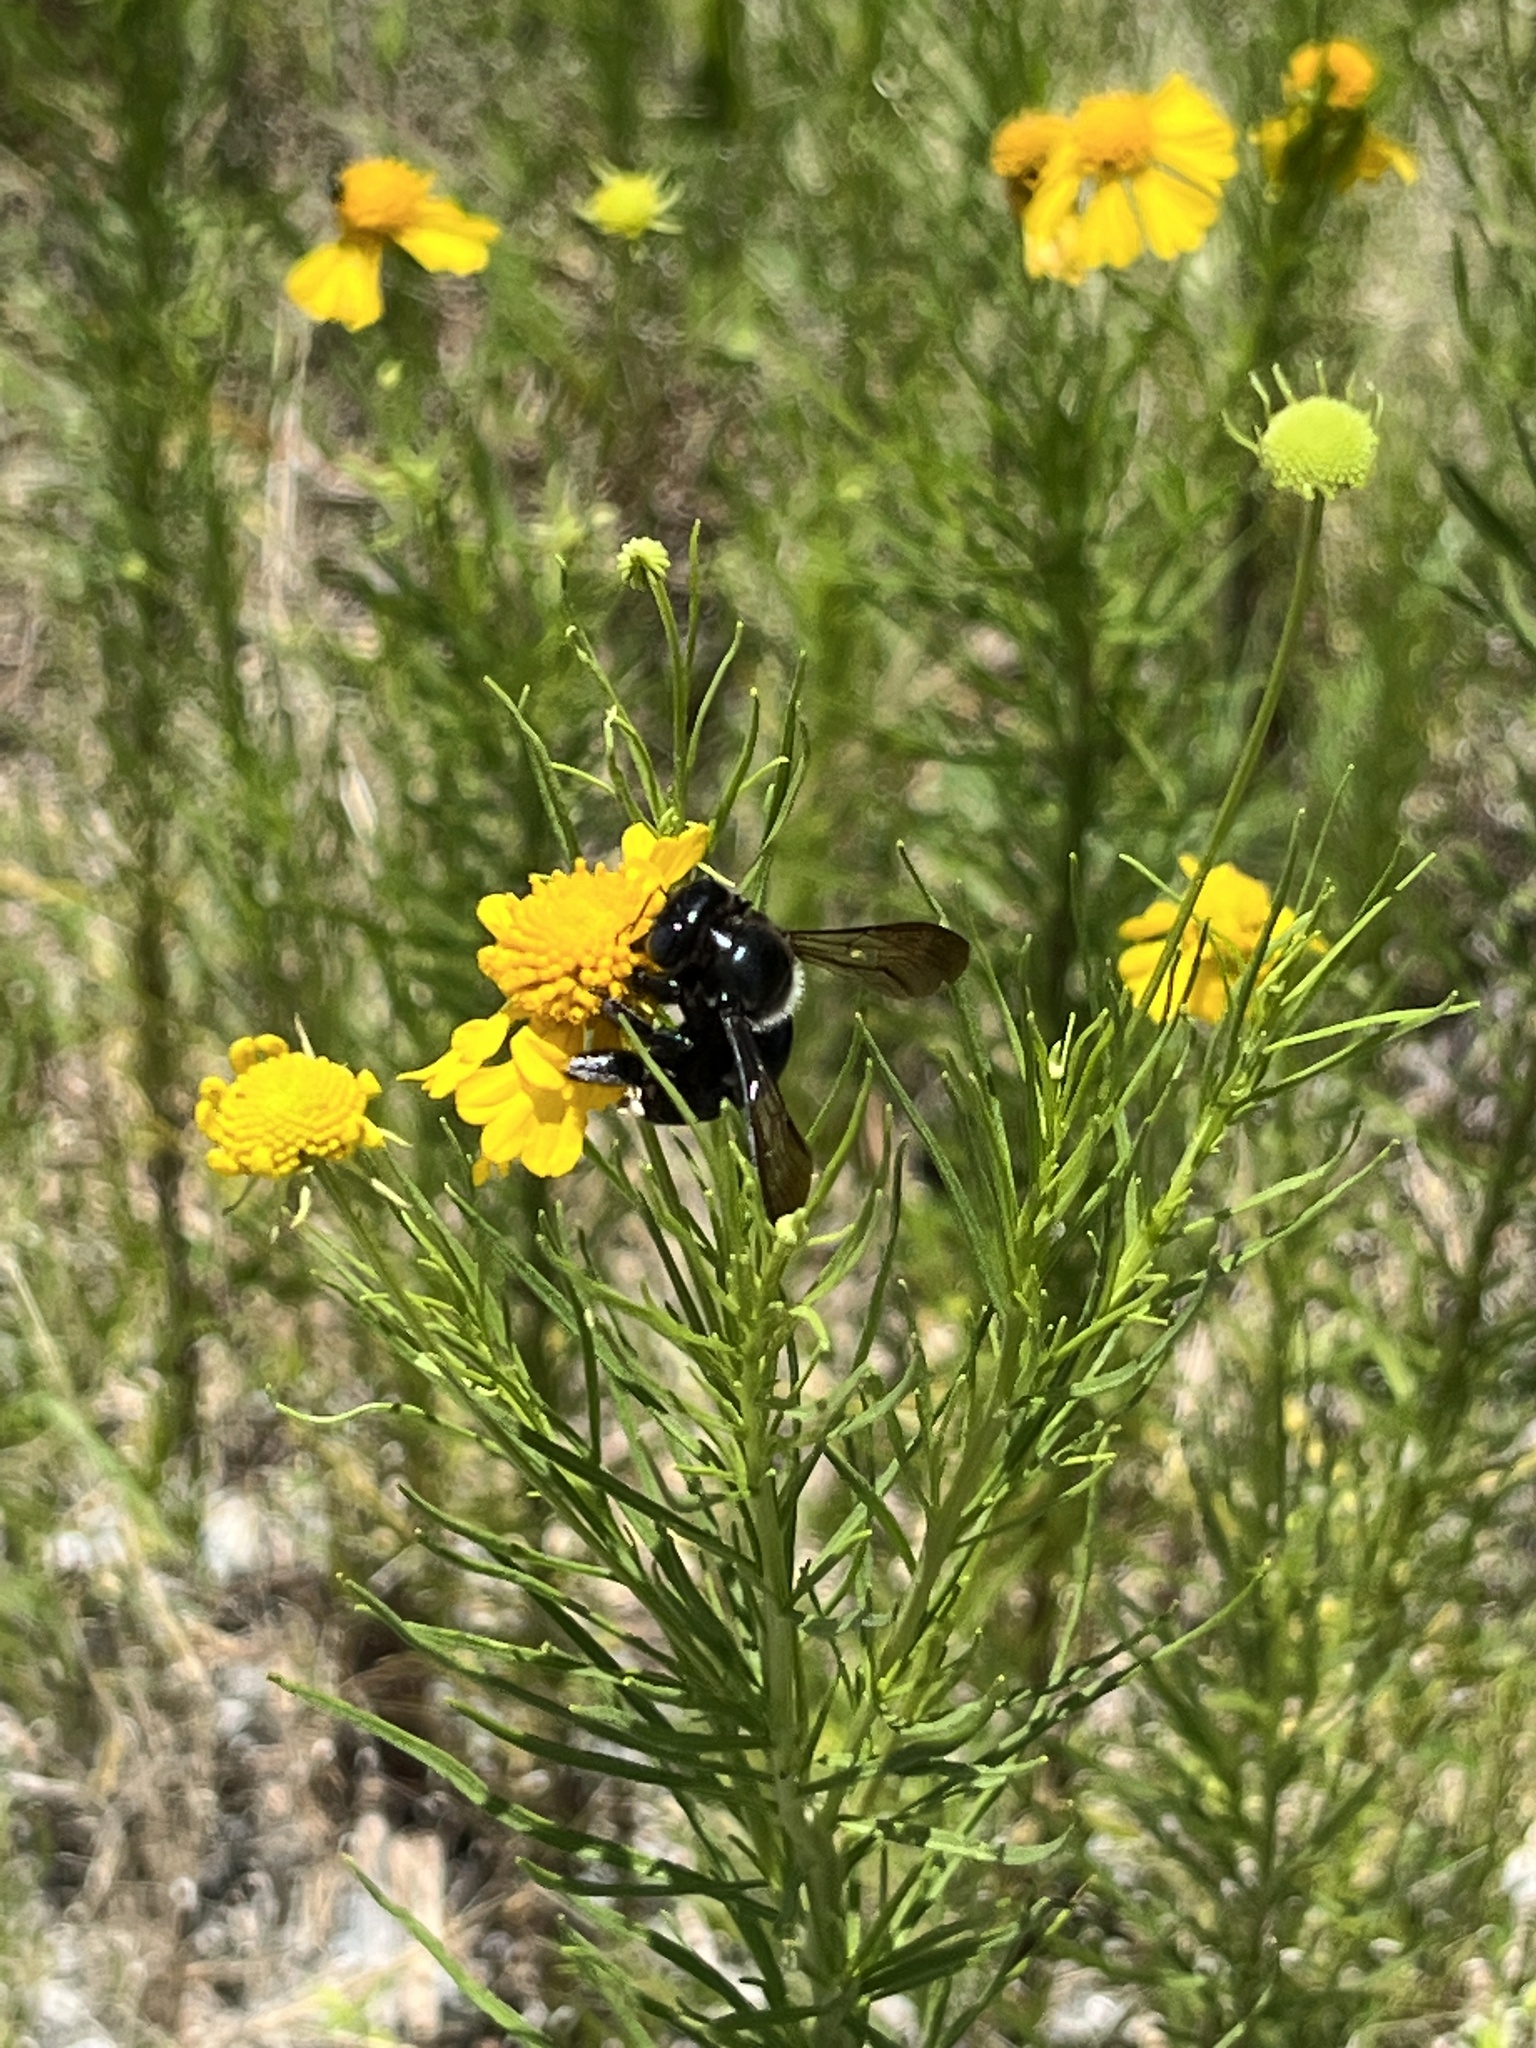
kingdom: Animalia
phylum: Arthropoda
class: Insecta
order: Hymenoptera
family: Apidae
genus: Xylocopa
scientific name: Xylocopa micans
